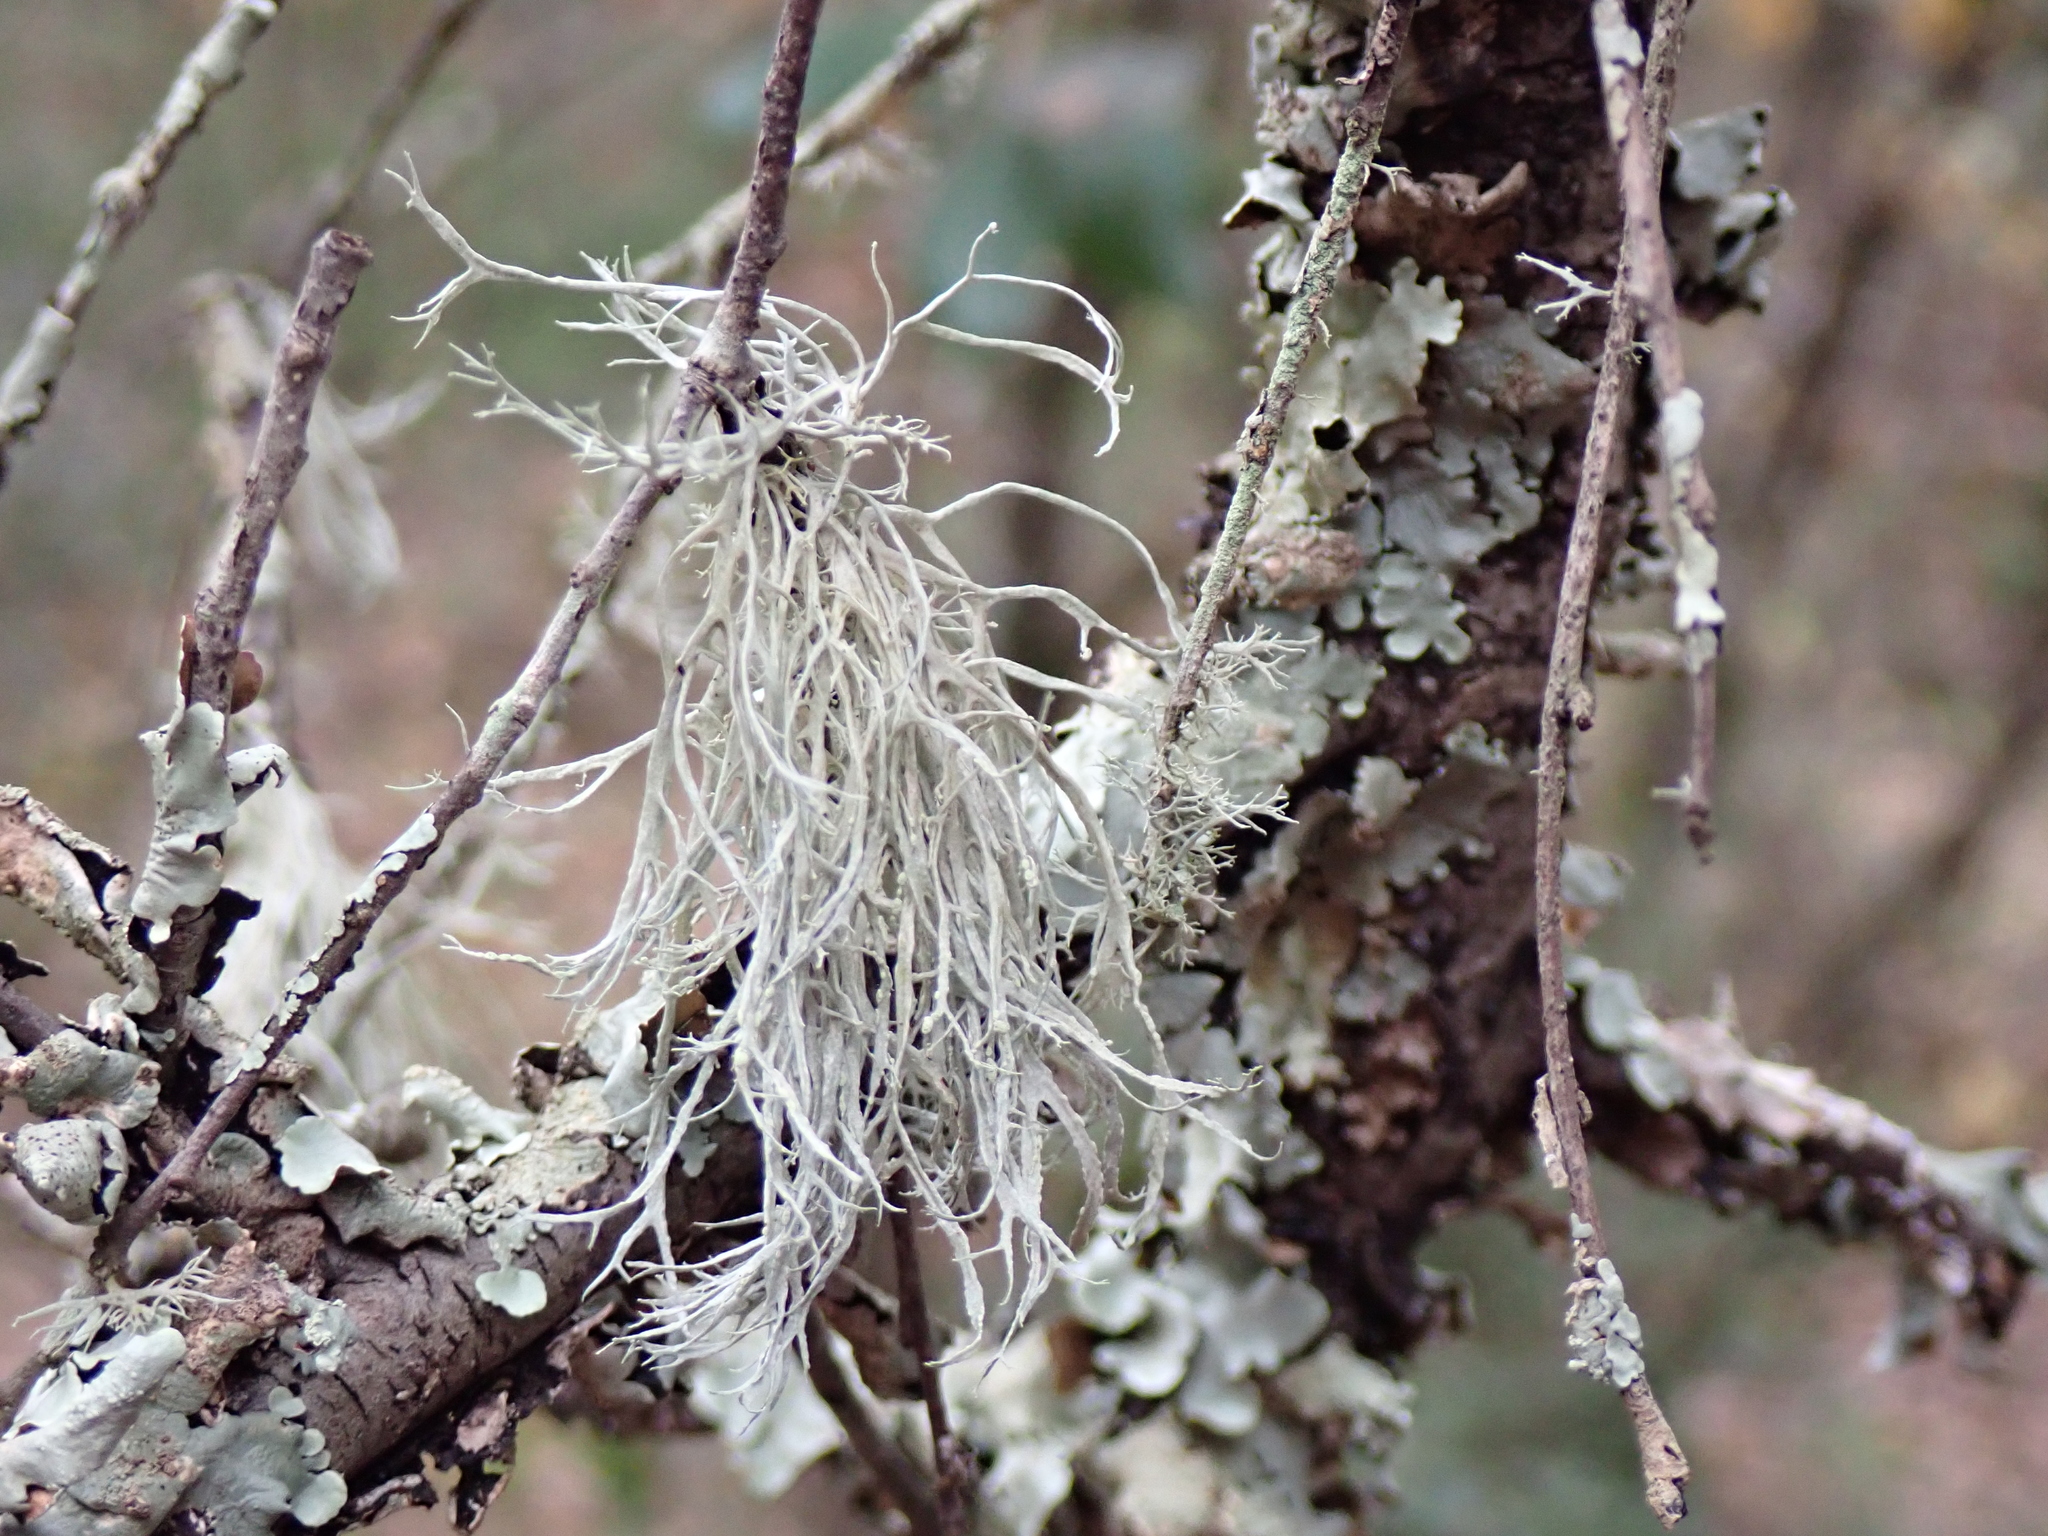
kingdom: Fungi
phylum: Ascomycota
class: Lecanoromycetes
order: Lecanorales
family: Ramalinaceae
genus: Ramalina
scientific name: Ramalina farinacea
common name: Farinose cartilage lichen
